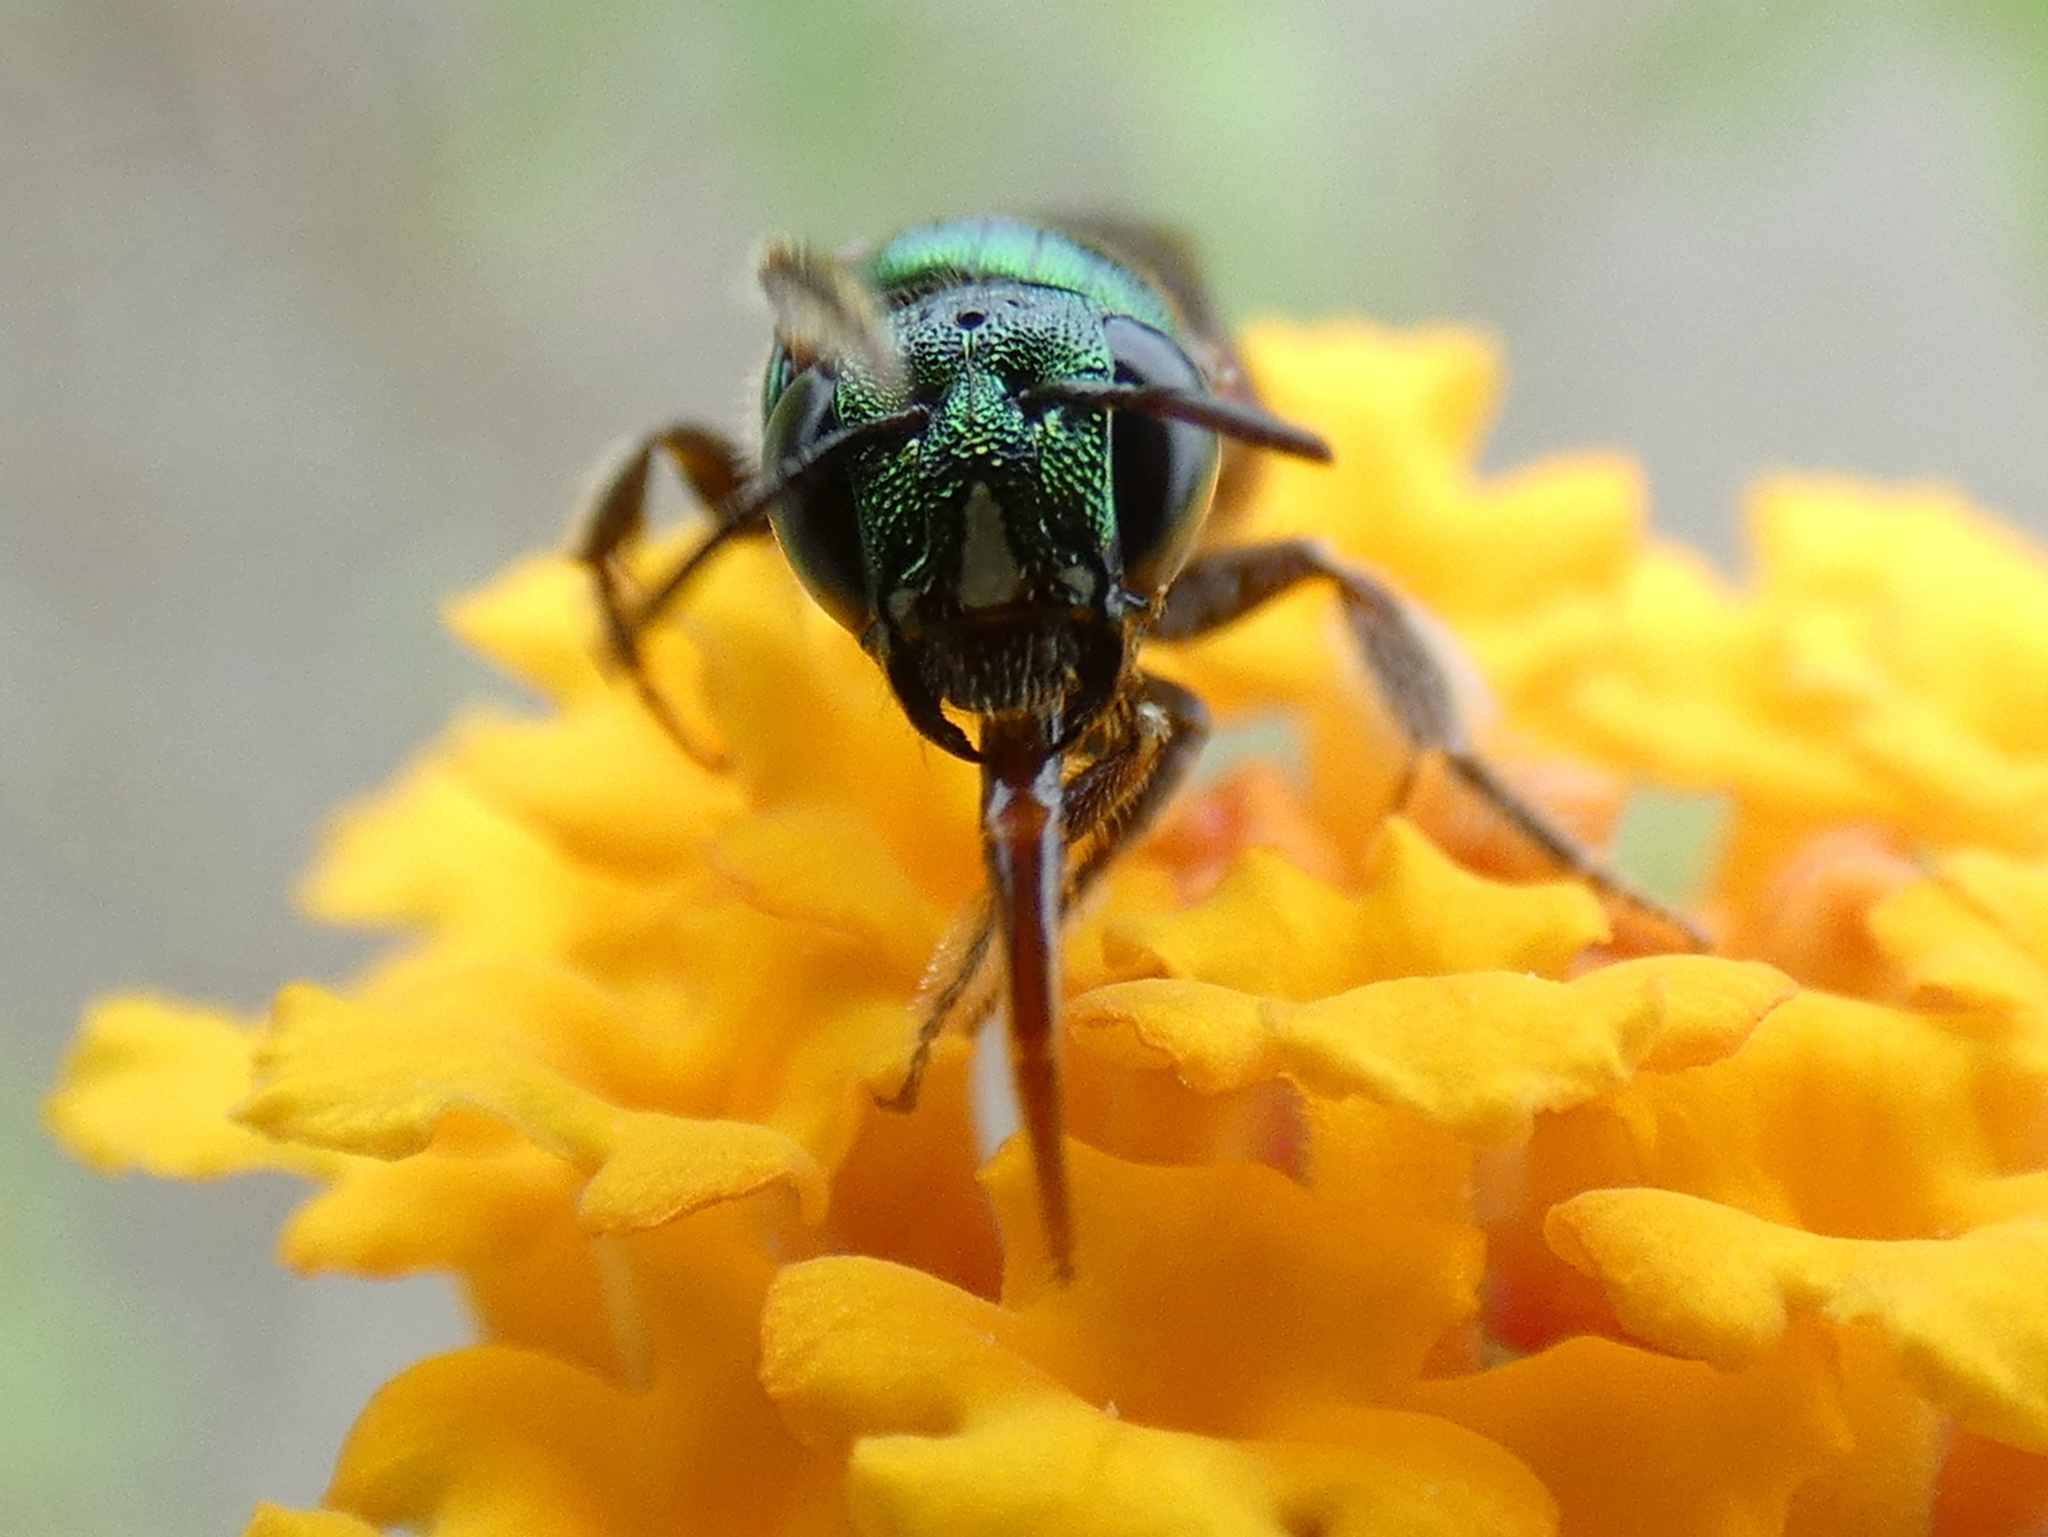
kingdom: Animalia
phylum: Arthropoda
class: Insecta
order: Hymenoptera
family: Apidae
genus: Ceratina
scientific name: Ceratina eximia
